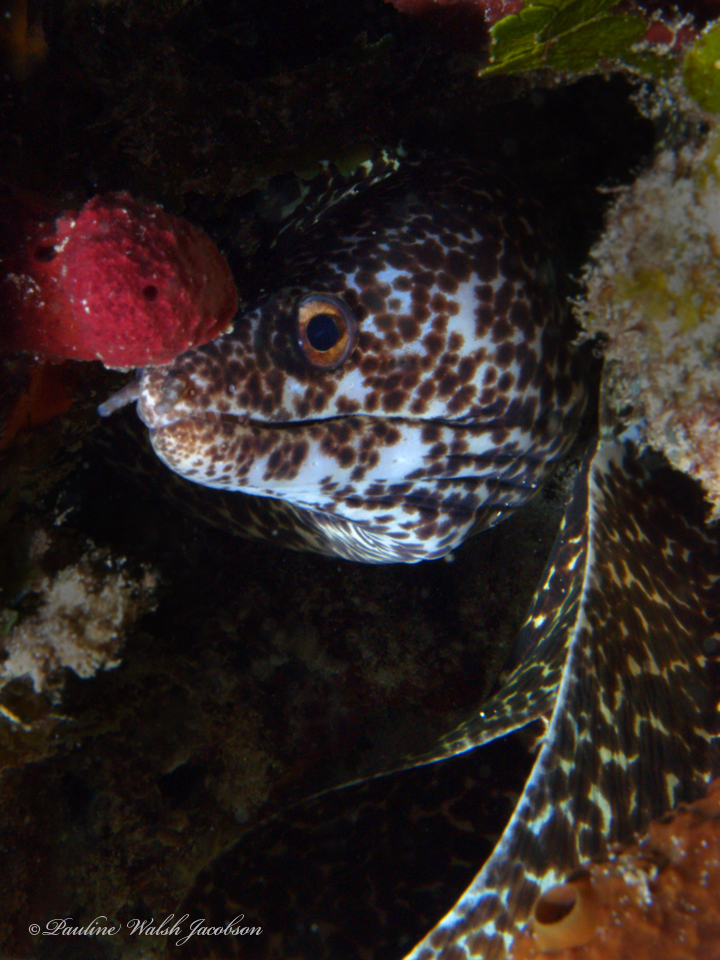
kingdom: Animalia
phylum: Chordata
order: Anguilliformes
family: Muraenidae
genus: Gymnothorax
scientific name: Gymnothorax moringa
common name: Spotted moray
